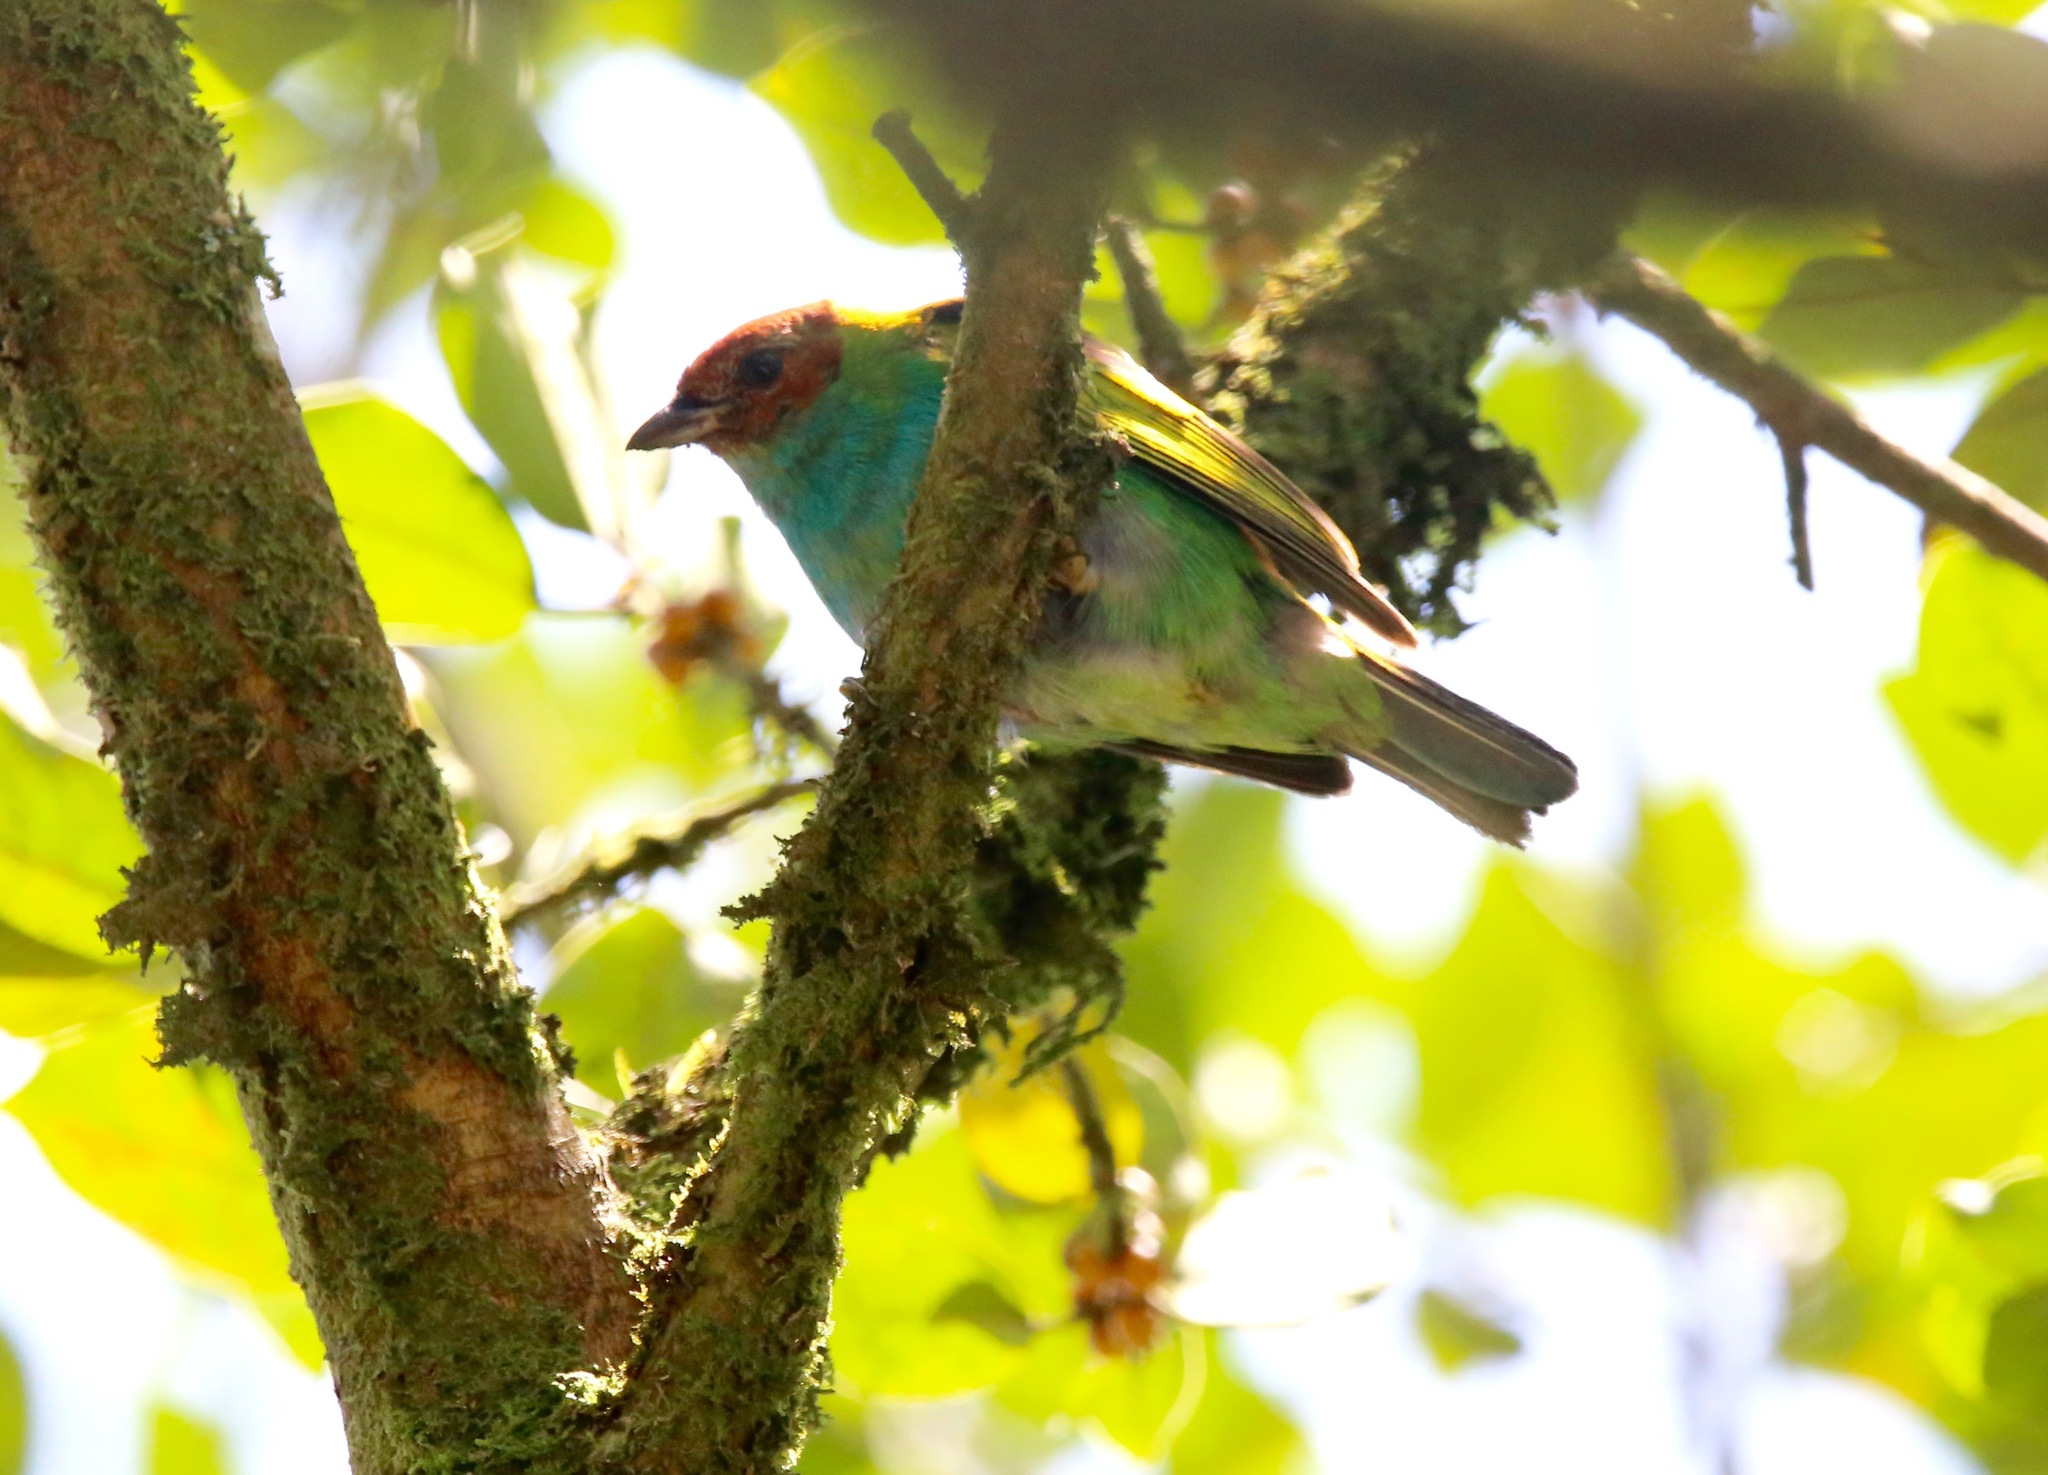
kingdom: Animalia
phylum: Chordata
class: Aves
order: Passeriformes
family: Thraupidae
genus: Tangara
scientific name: Tangara gyrola
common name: Bay-headed tanager
